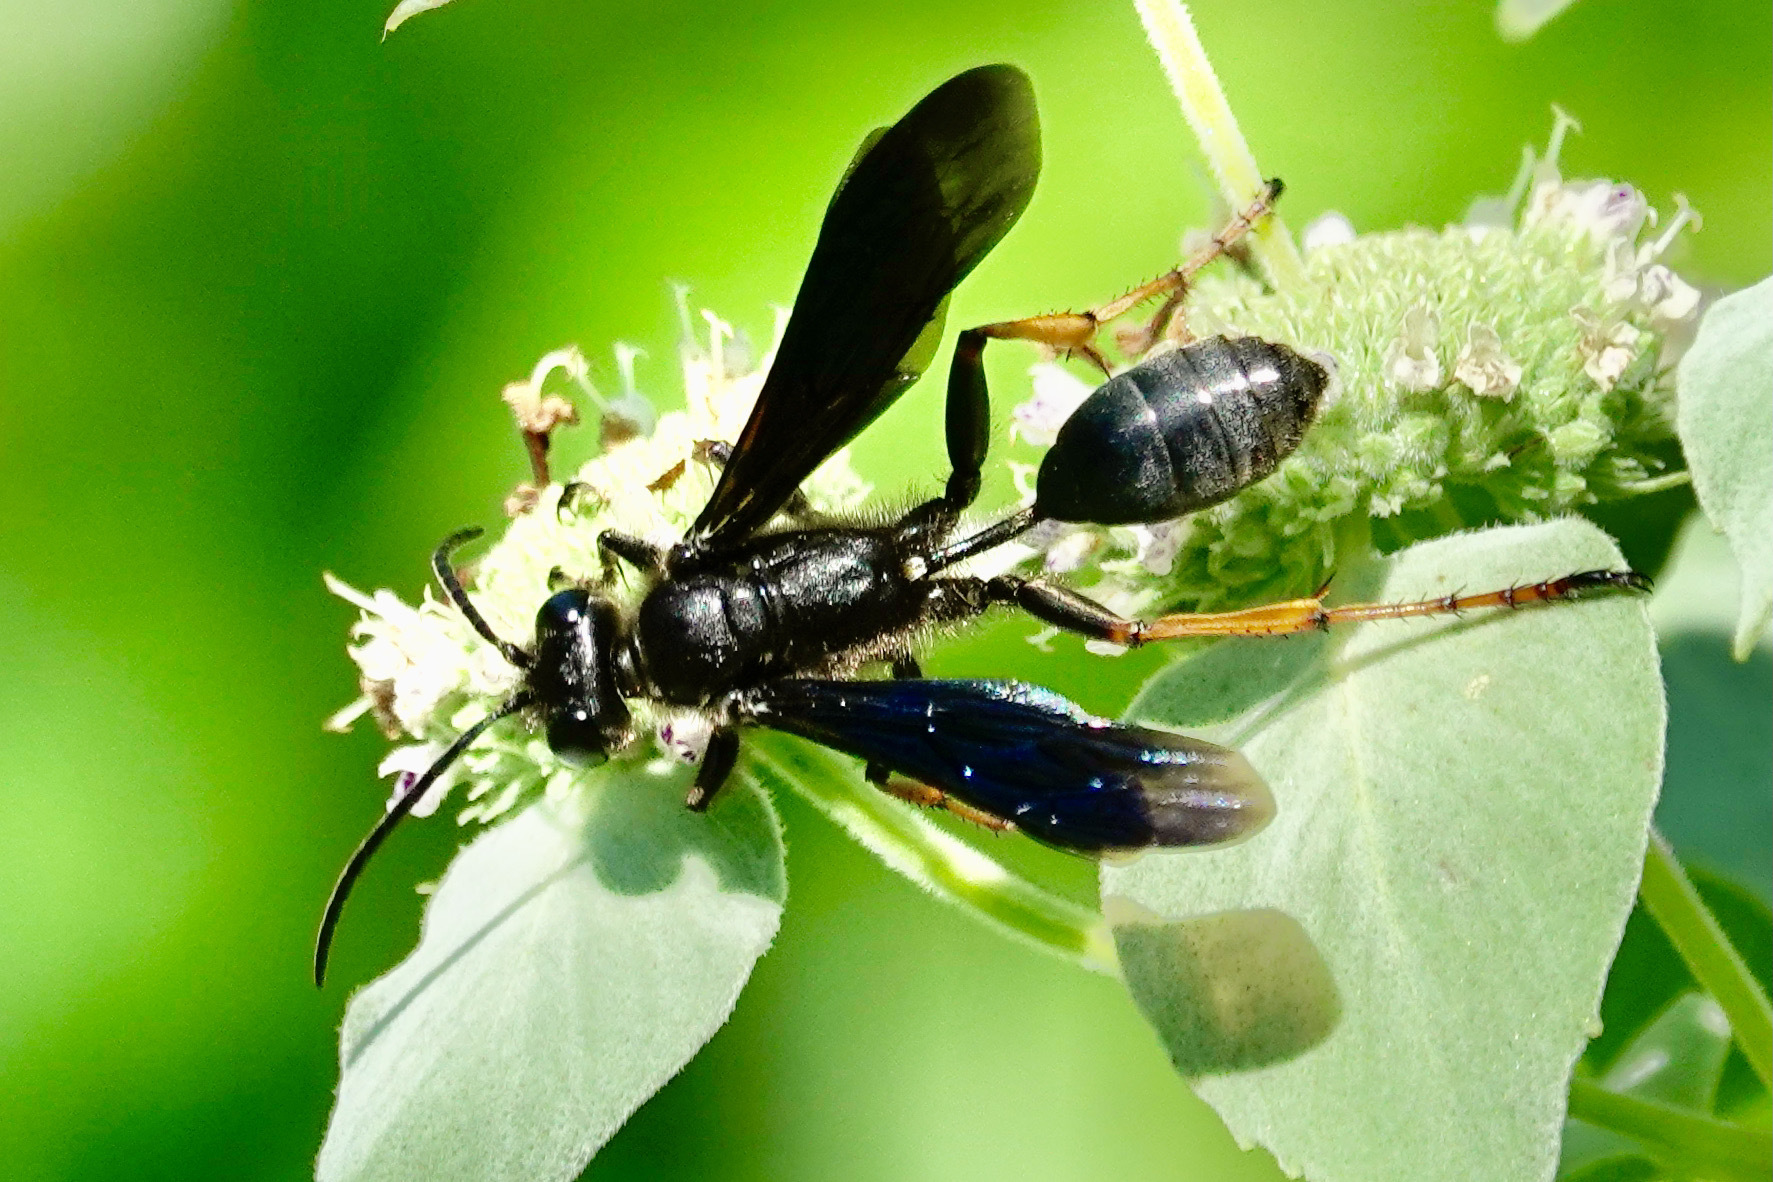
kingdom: Animalia
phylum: Arthropoda
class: Insecta
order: Hymenoptera
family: Sphecidae
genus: Isodontia
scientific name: Isodontia auripes
